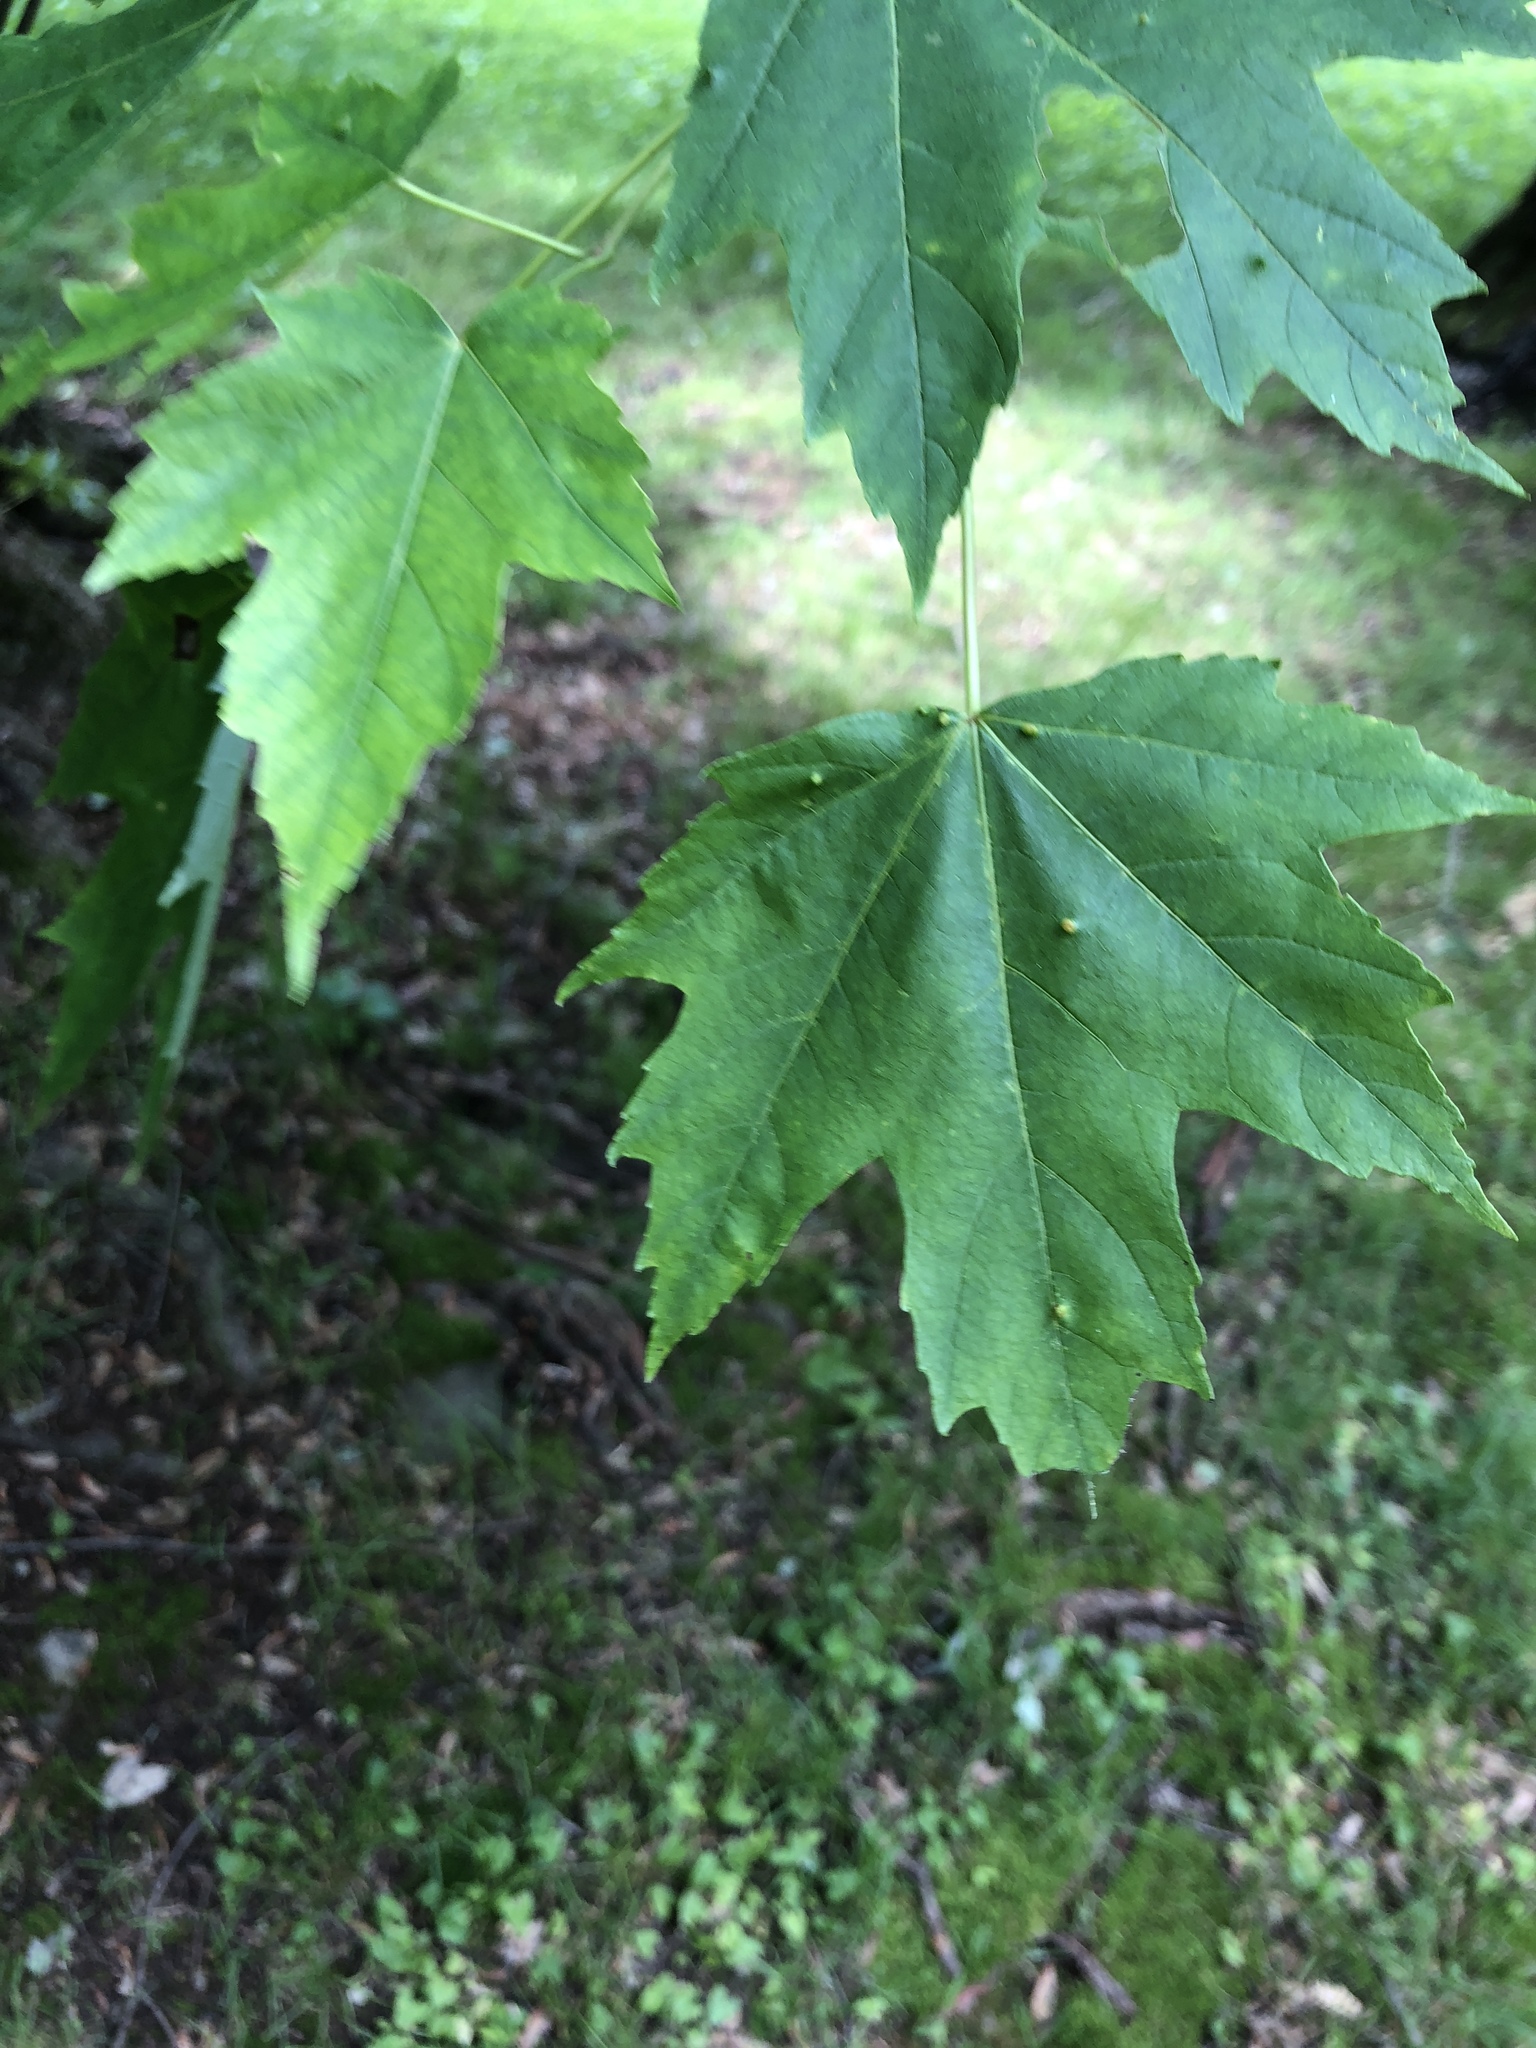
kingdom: Plantae
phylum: Tracheophyta
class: Magnoliopsida
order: Sapindales
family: Sapindaceae
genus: Acer
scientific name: Acer rubrum
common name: Red maple
